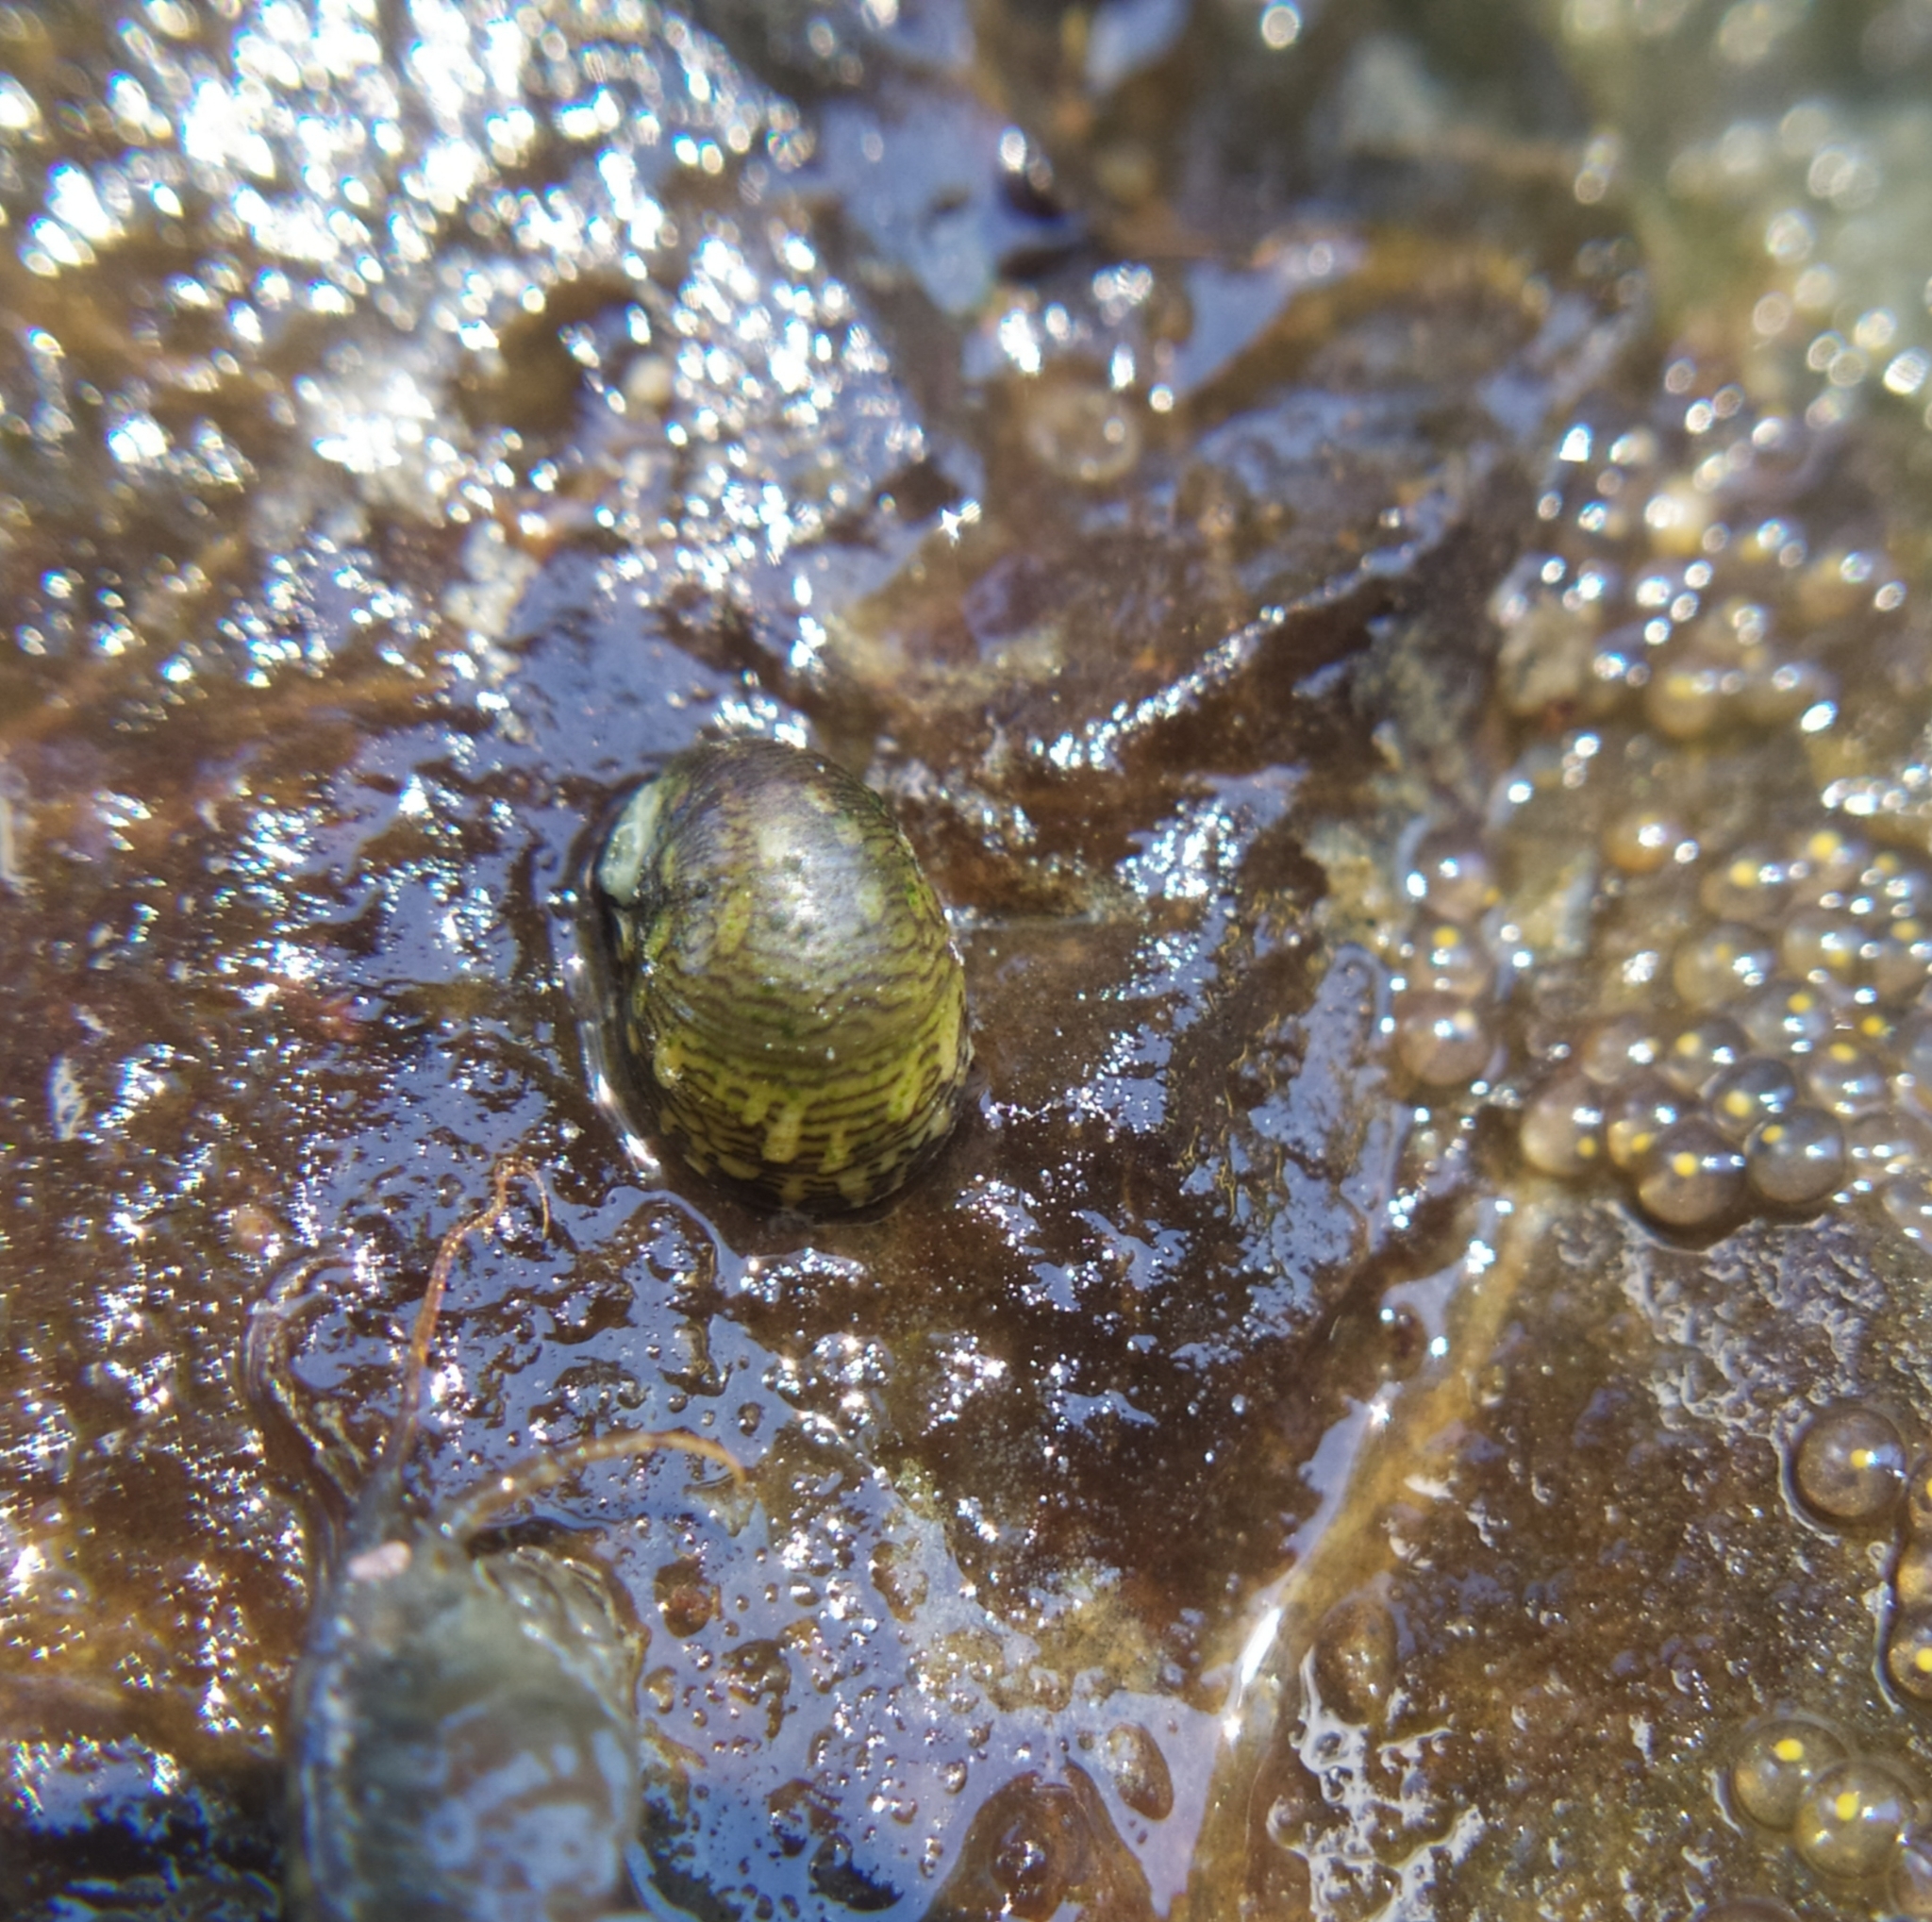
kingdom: Animalia
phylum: Mollusca
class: Gastropoda
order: Cycloneritida
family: Neritidae
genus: Theodoxus
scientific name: Theodoxus fluviatilis
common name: River nerite
